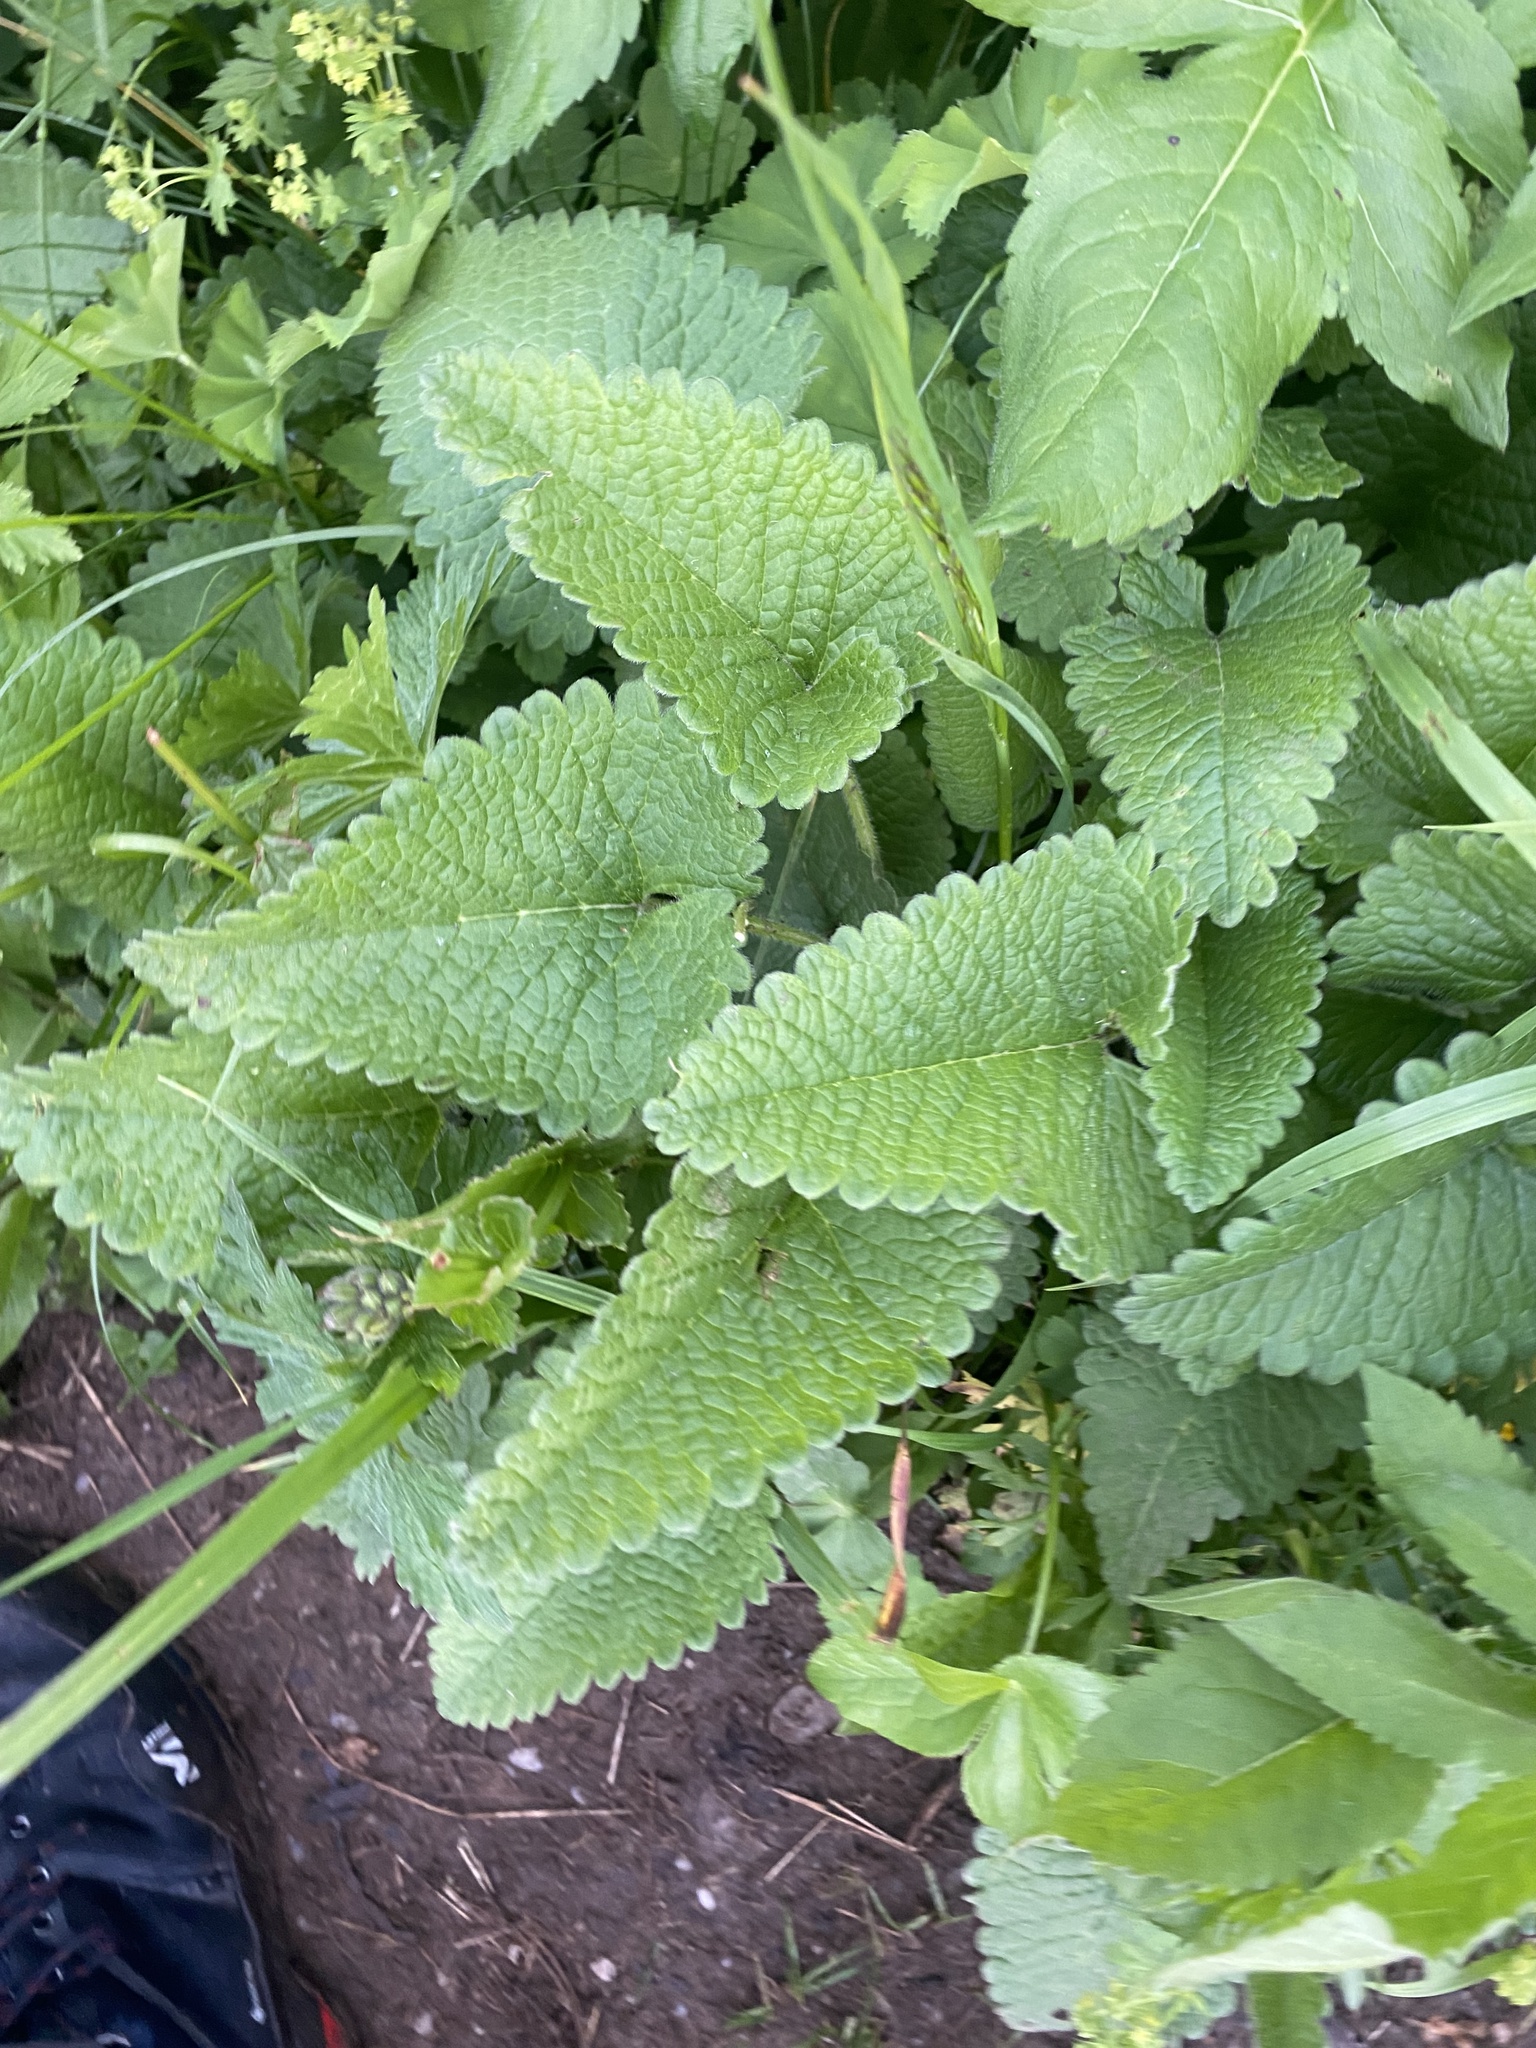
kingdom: Plantae
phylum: Tracheophyta
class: Magnoliopsida
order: Lamiales
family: Lamiaceae
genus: Betonica
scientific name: Betonica macrantha
